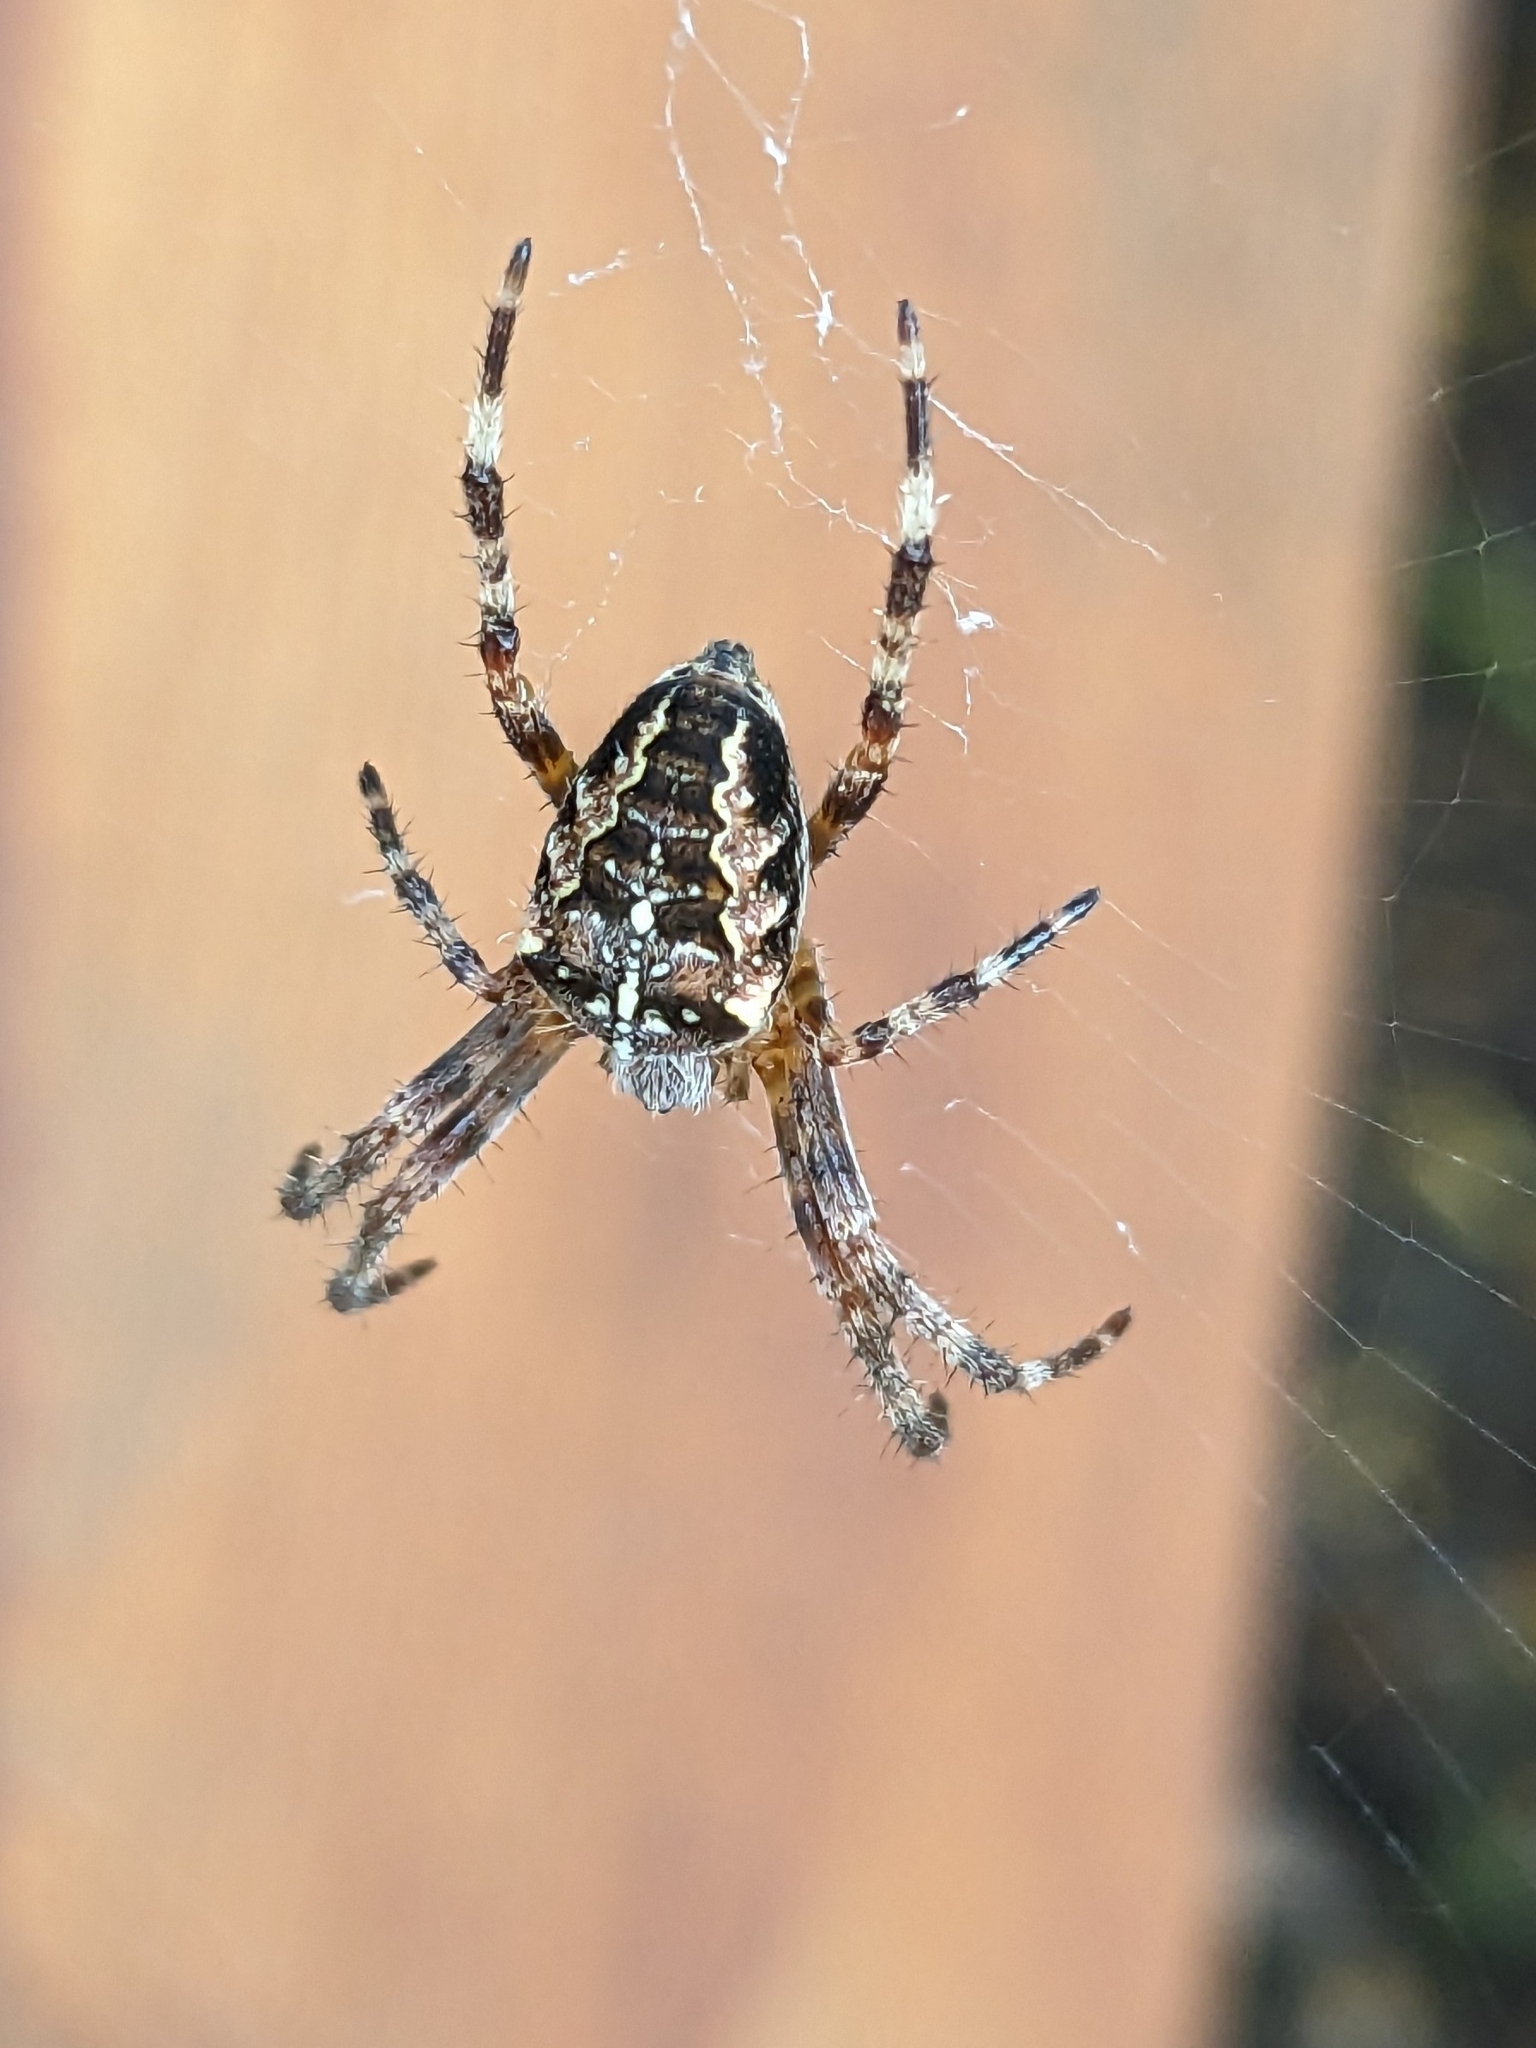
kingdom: Animalia
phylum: Arthropoda
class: Arachnida
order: Araneae
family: Araneidae
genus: Araneus
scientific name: Araneus diadematus
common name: Cross orbweaver
